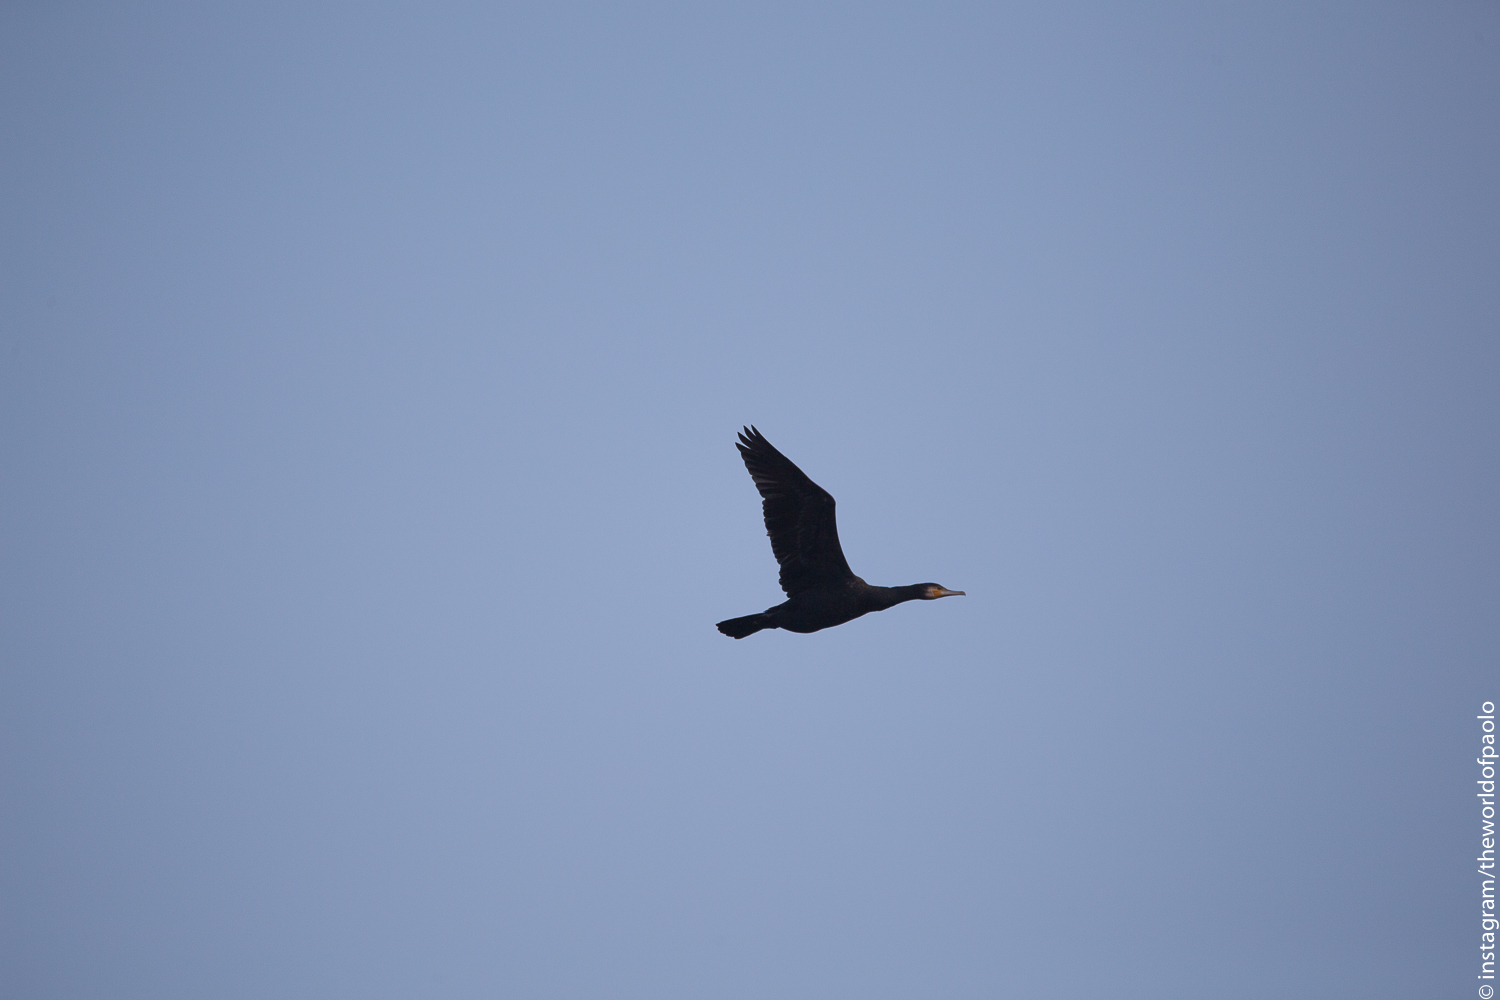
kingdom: Animalia
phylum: Chordata
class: Aves
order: Suliformes
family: Phalacrocoracidae
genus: Phalacrocorax
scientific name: Phalacrocorax carbo
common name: Great cormorant
